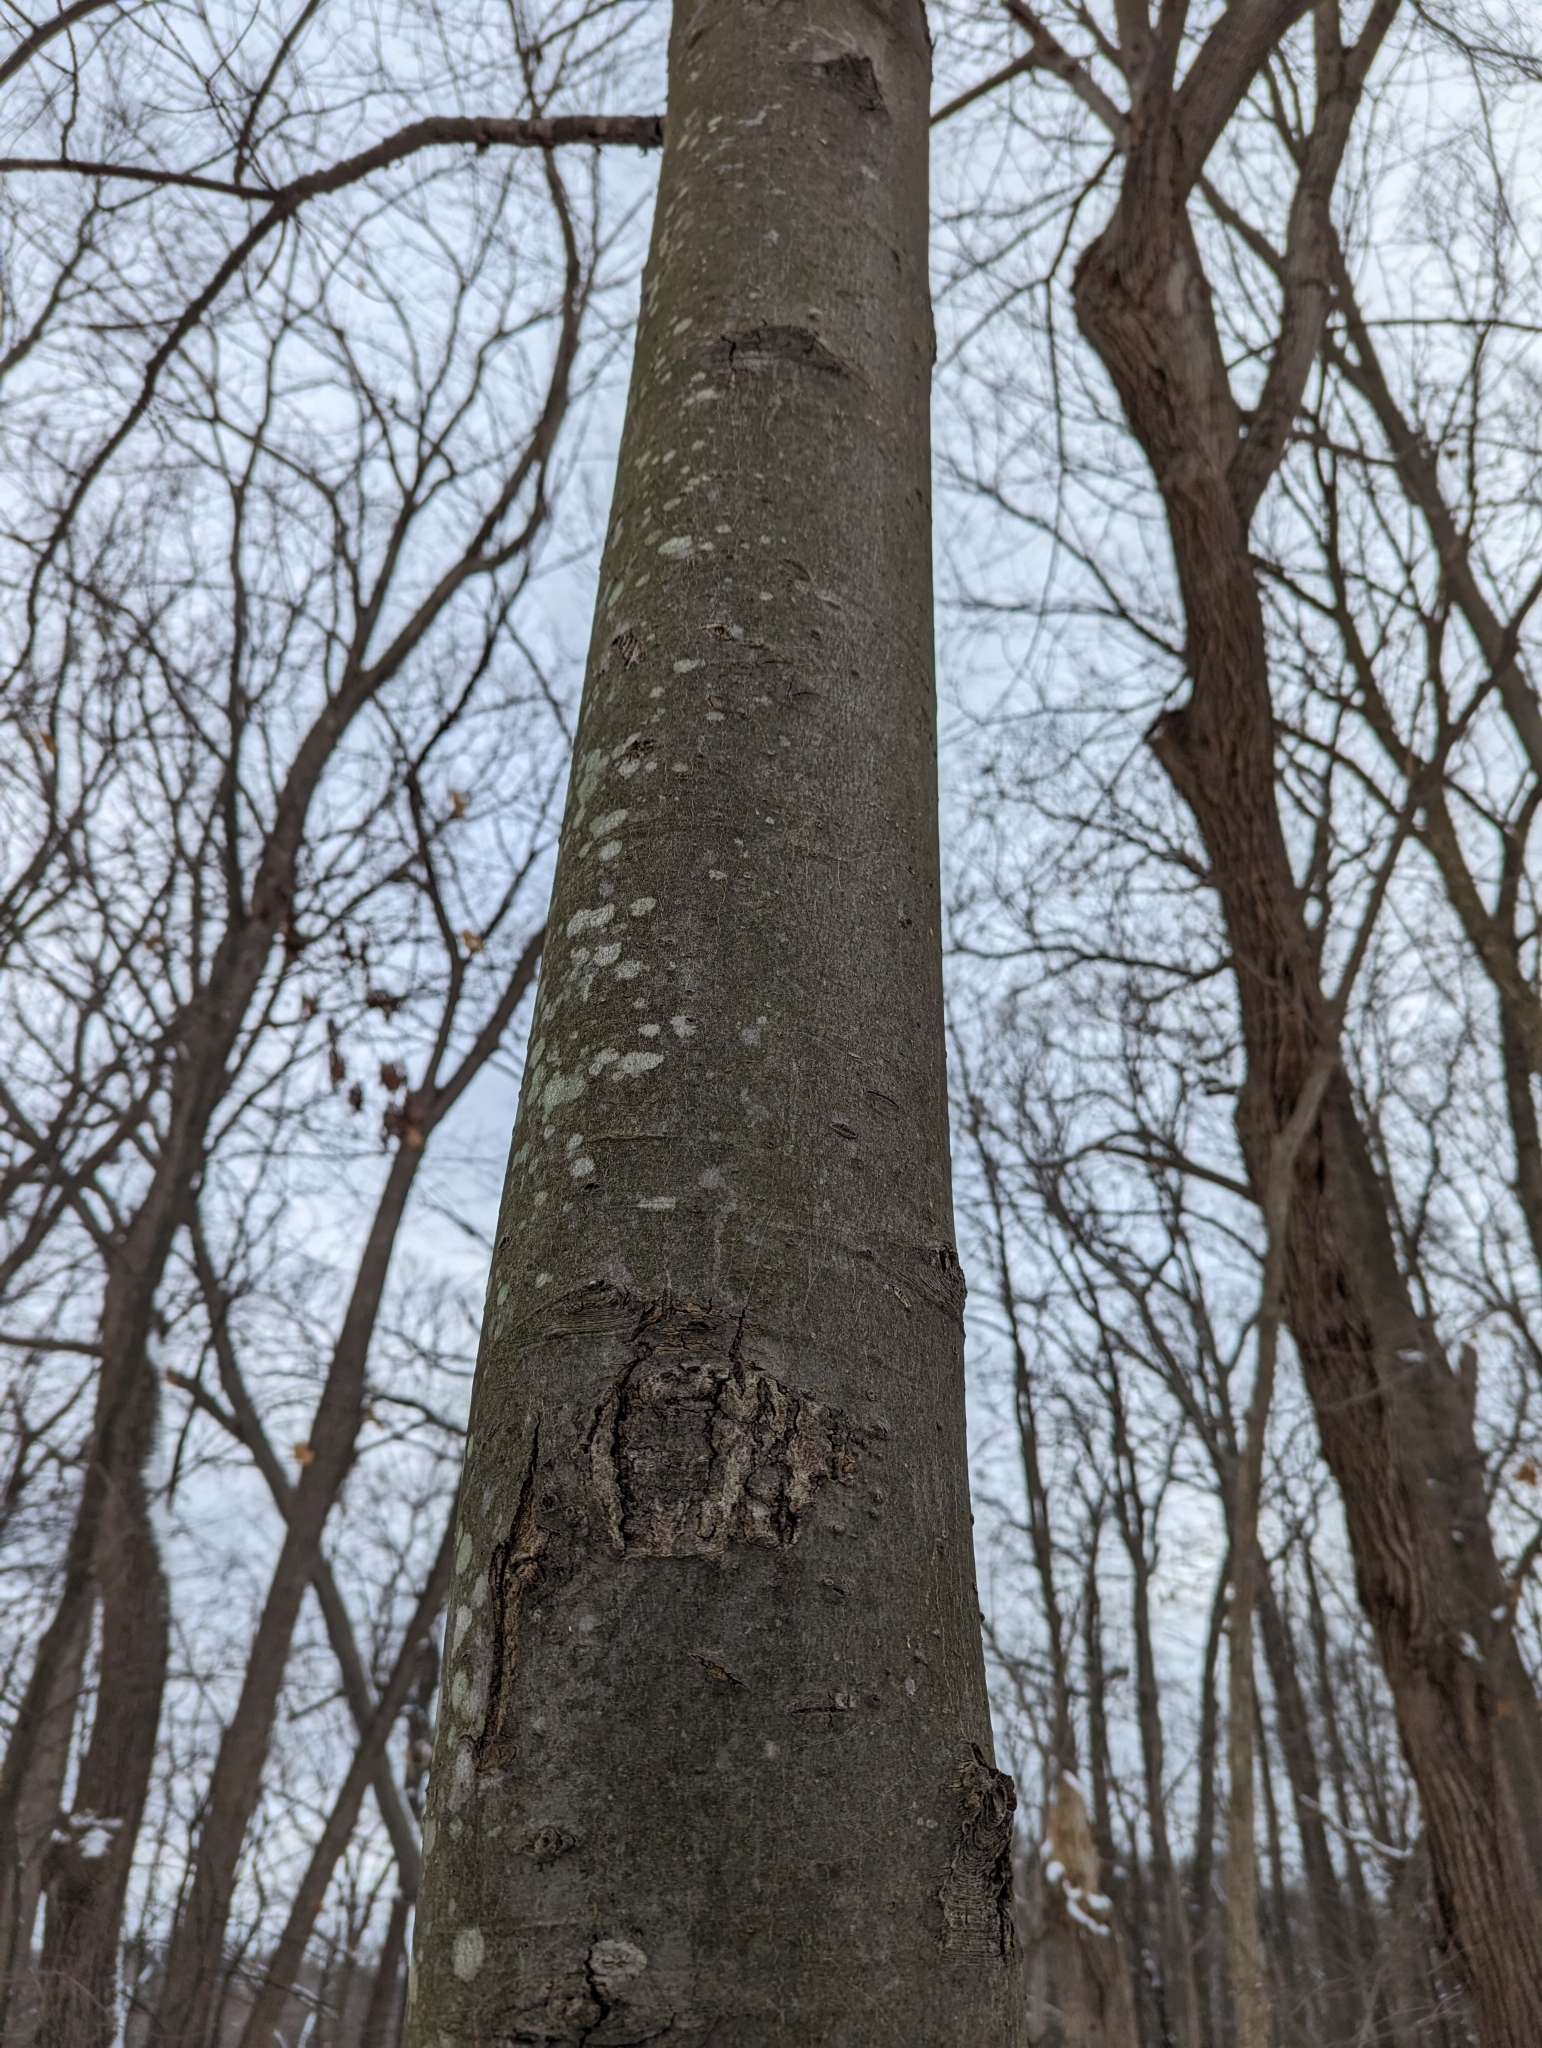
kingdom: Plantae
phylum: Tracheophyta
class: Magnoliopsida
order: Fagales
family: Fagaceae
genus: Fagus
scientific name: Fagus grandifolia
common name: American beech
